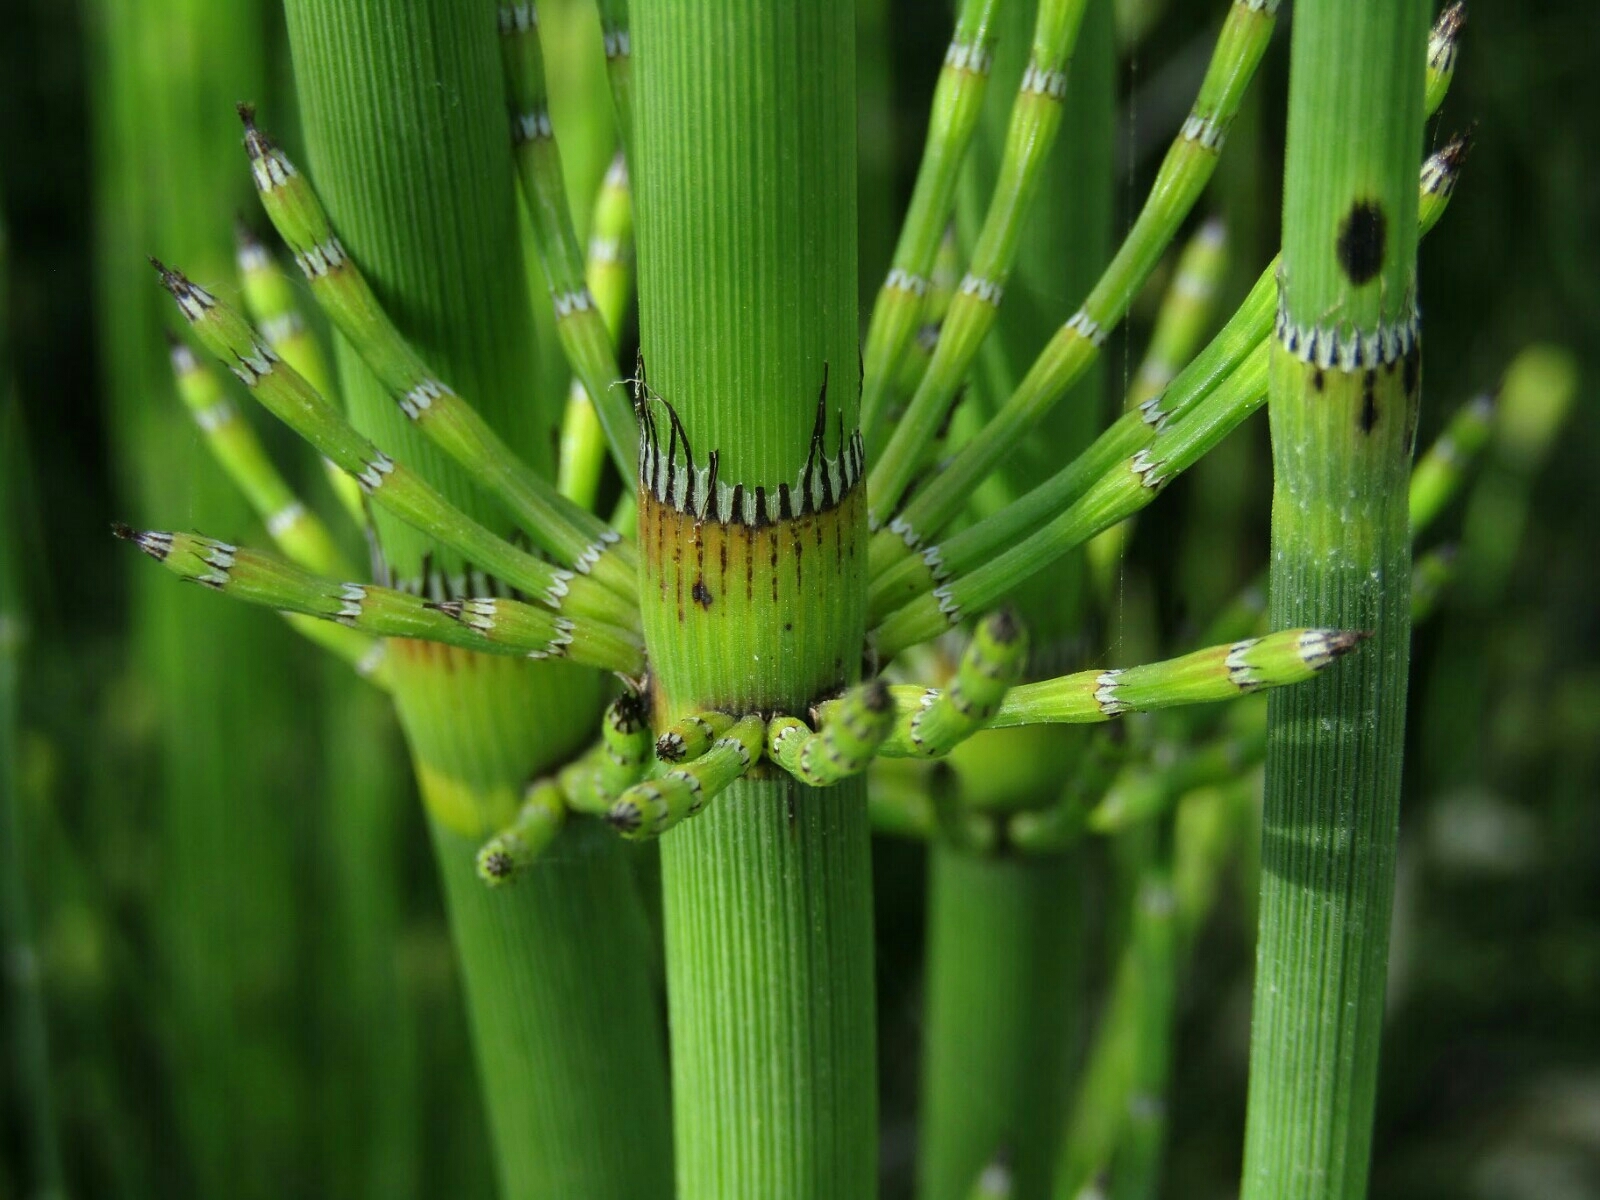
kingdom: Plantae
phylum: Tracheophyta
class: Polypodiopsida
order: Equisetales
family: Equisetaceae
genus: Equisetum
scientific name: Equisetum giganteum
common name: Giant horsetail
